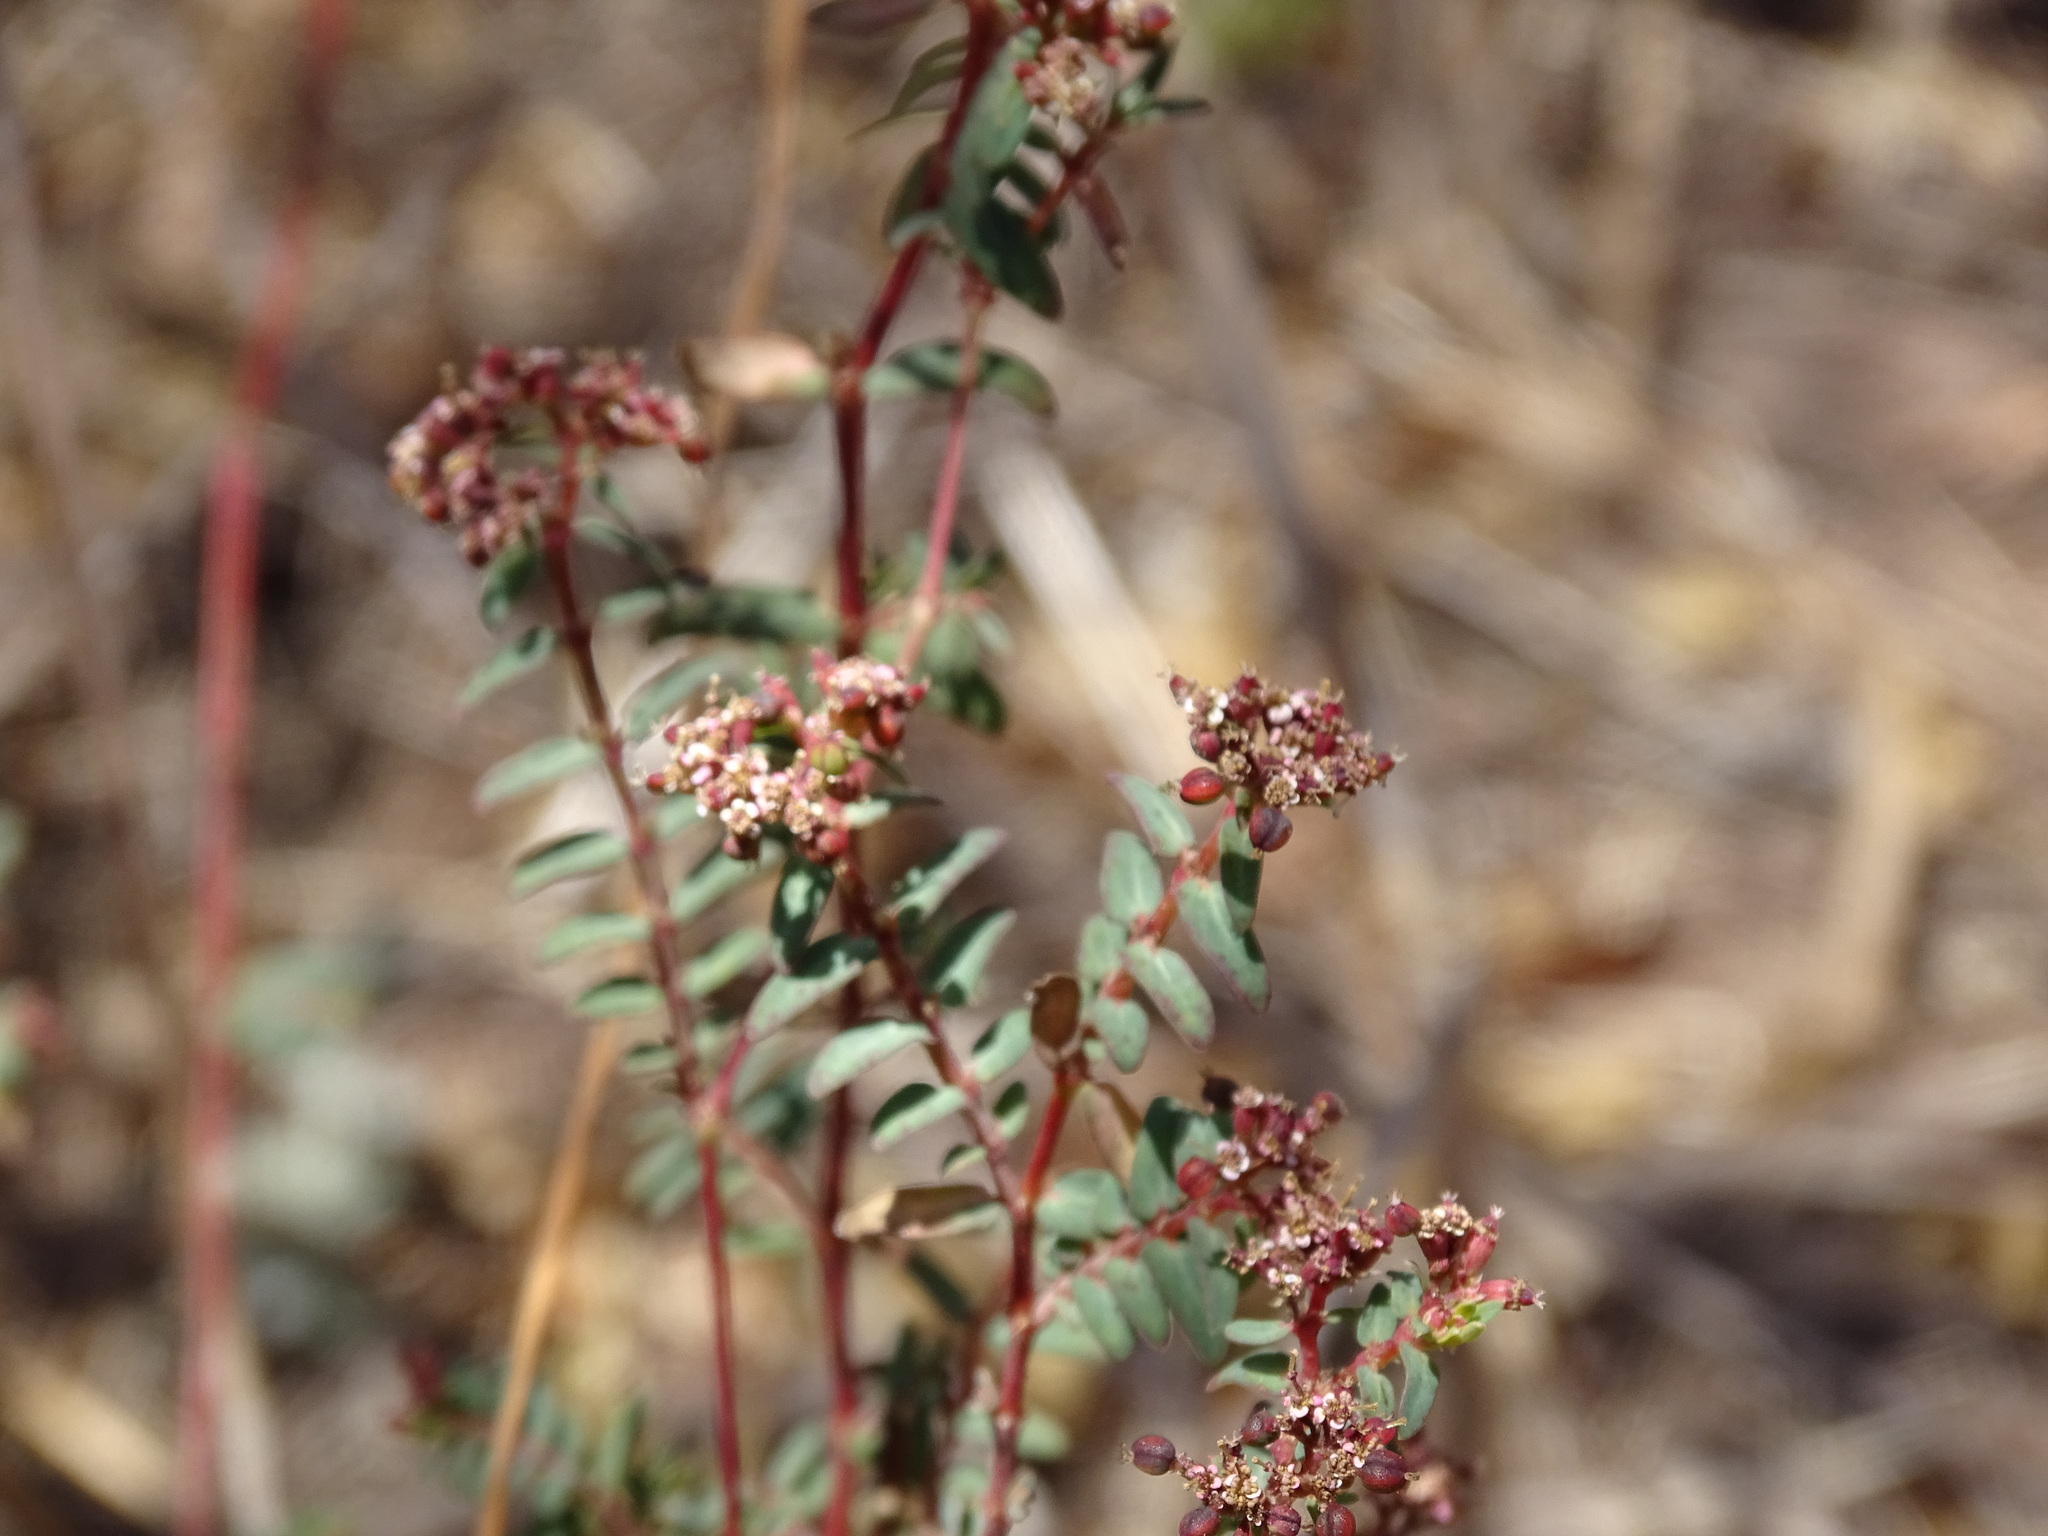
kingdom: Plantae
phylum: Tracheophyta
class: Magnoliopsida
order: Malpighiales
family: Euphorbiaceae
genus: Euphorbia
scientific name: Euphorbia tomentulosa
